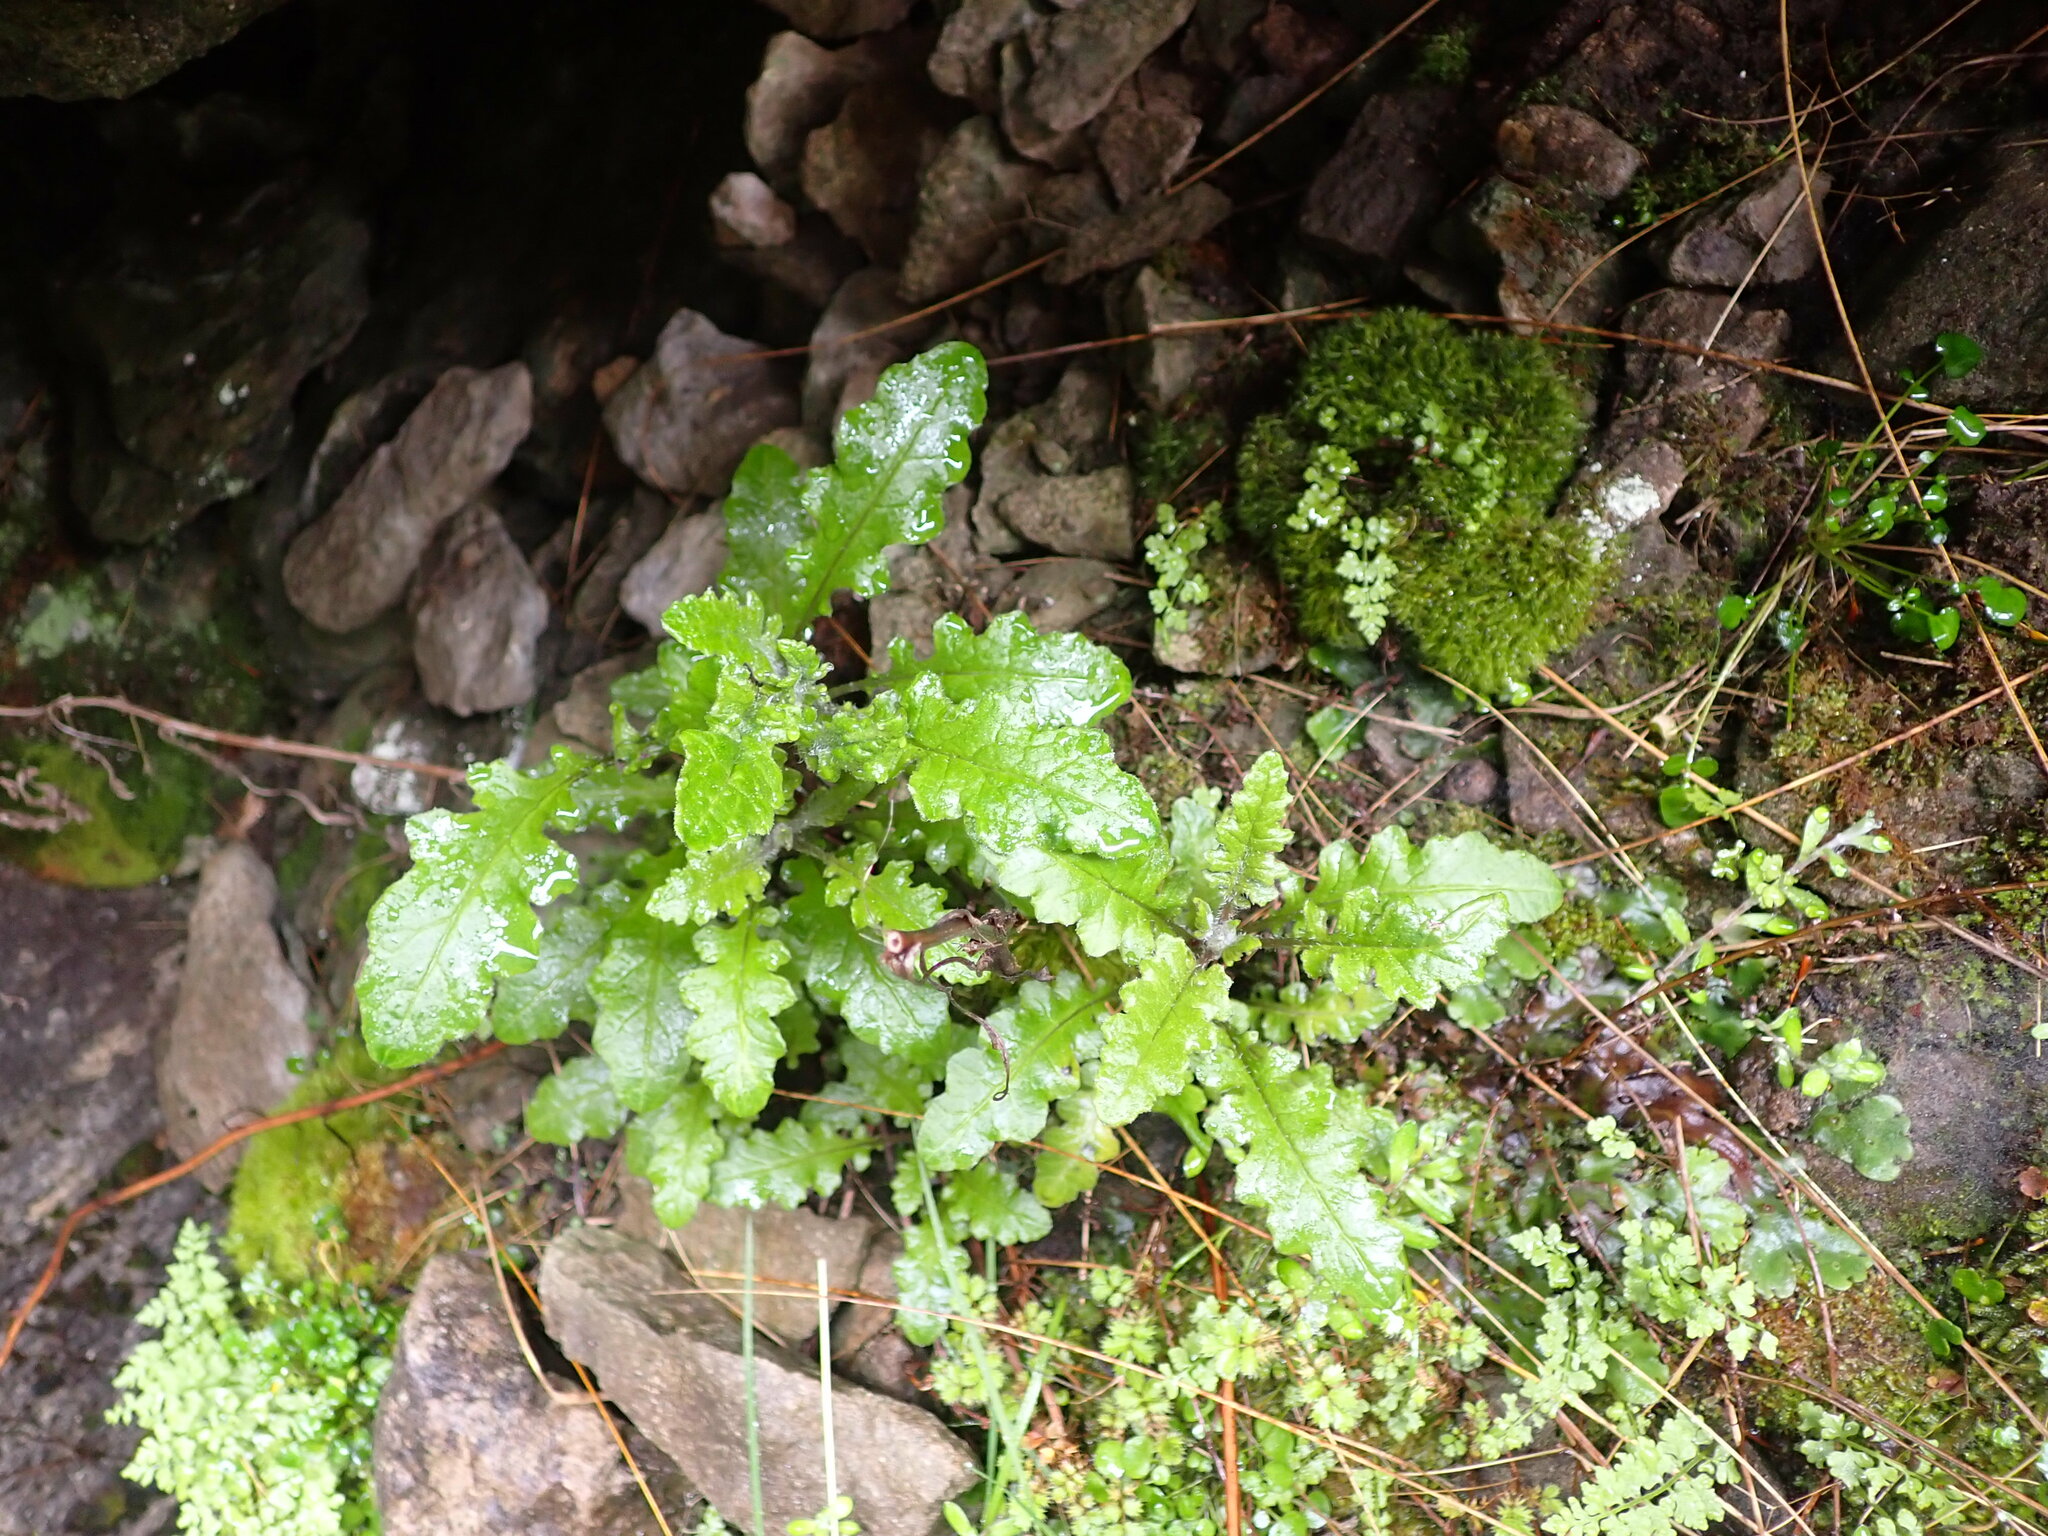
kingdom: Plantae
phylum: Tracheophyta
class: Magnoliopsida
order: Asterales
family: Asteraceae
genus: Senecio
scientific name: Senecio wairauensis
